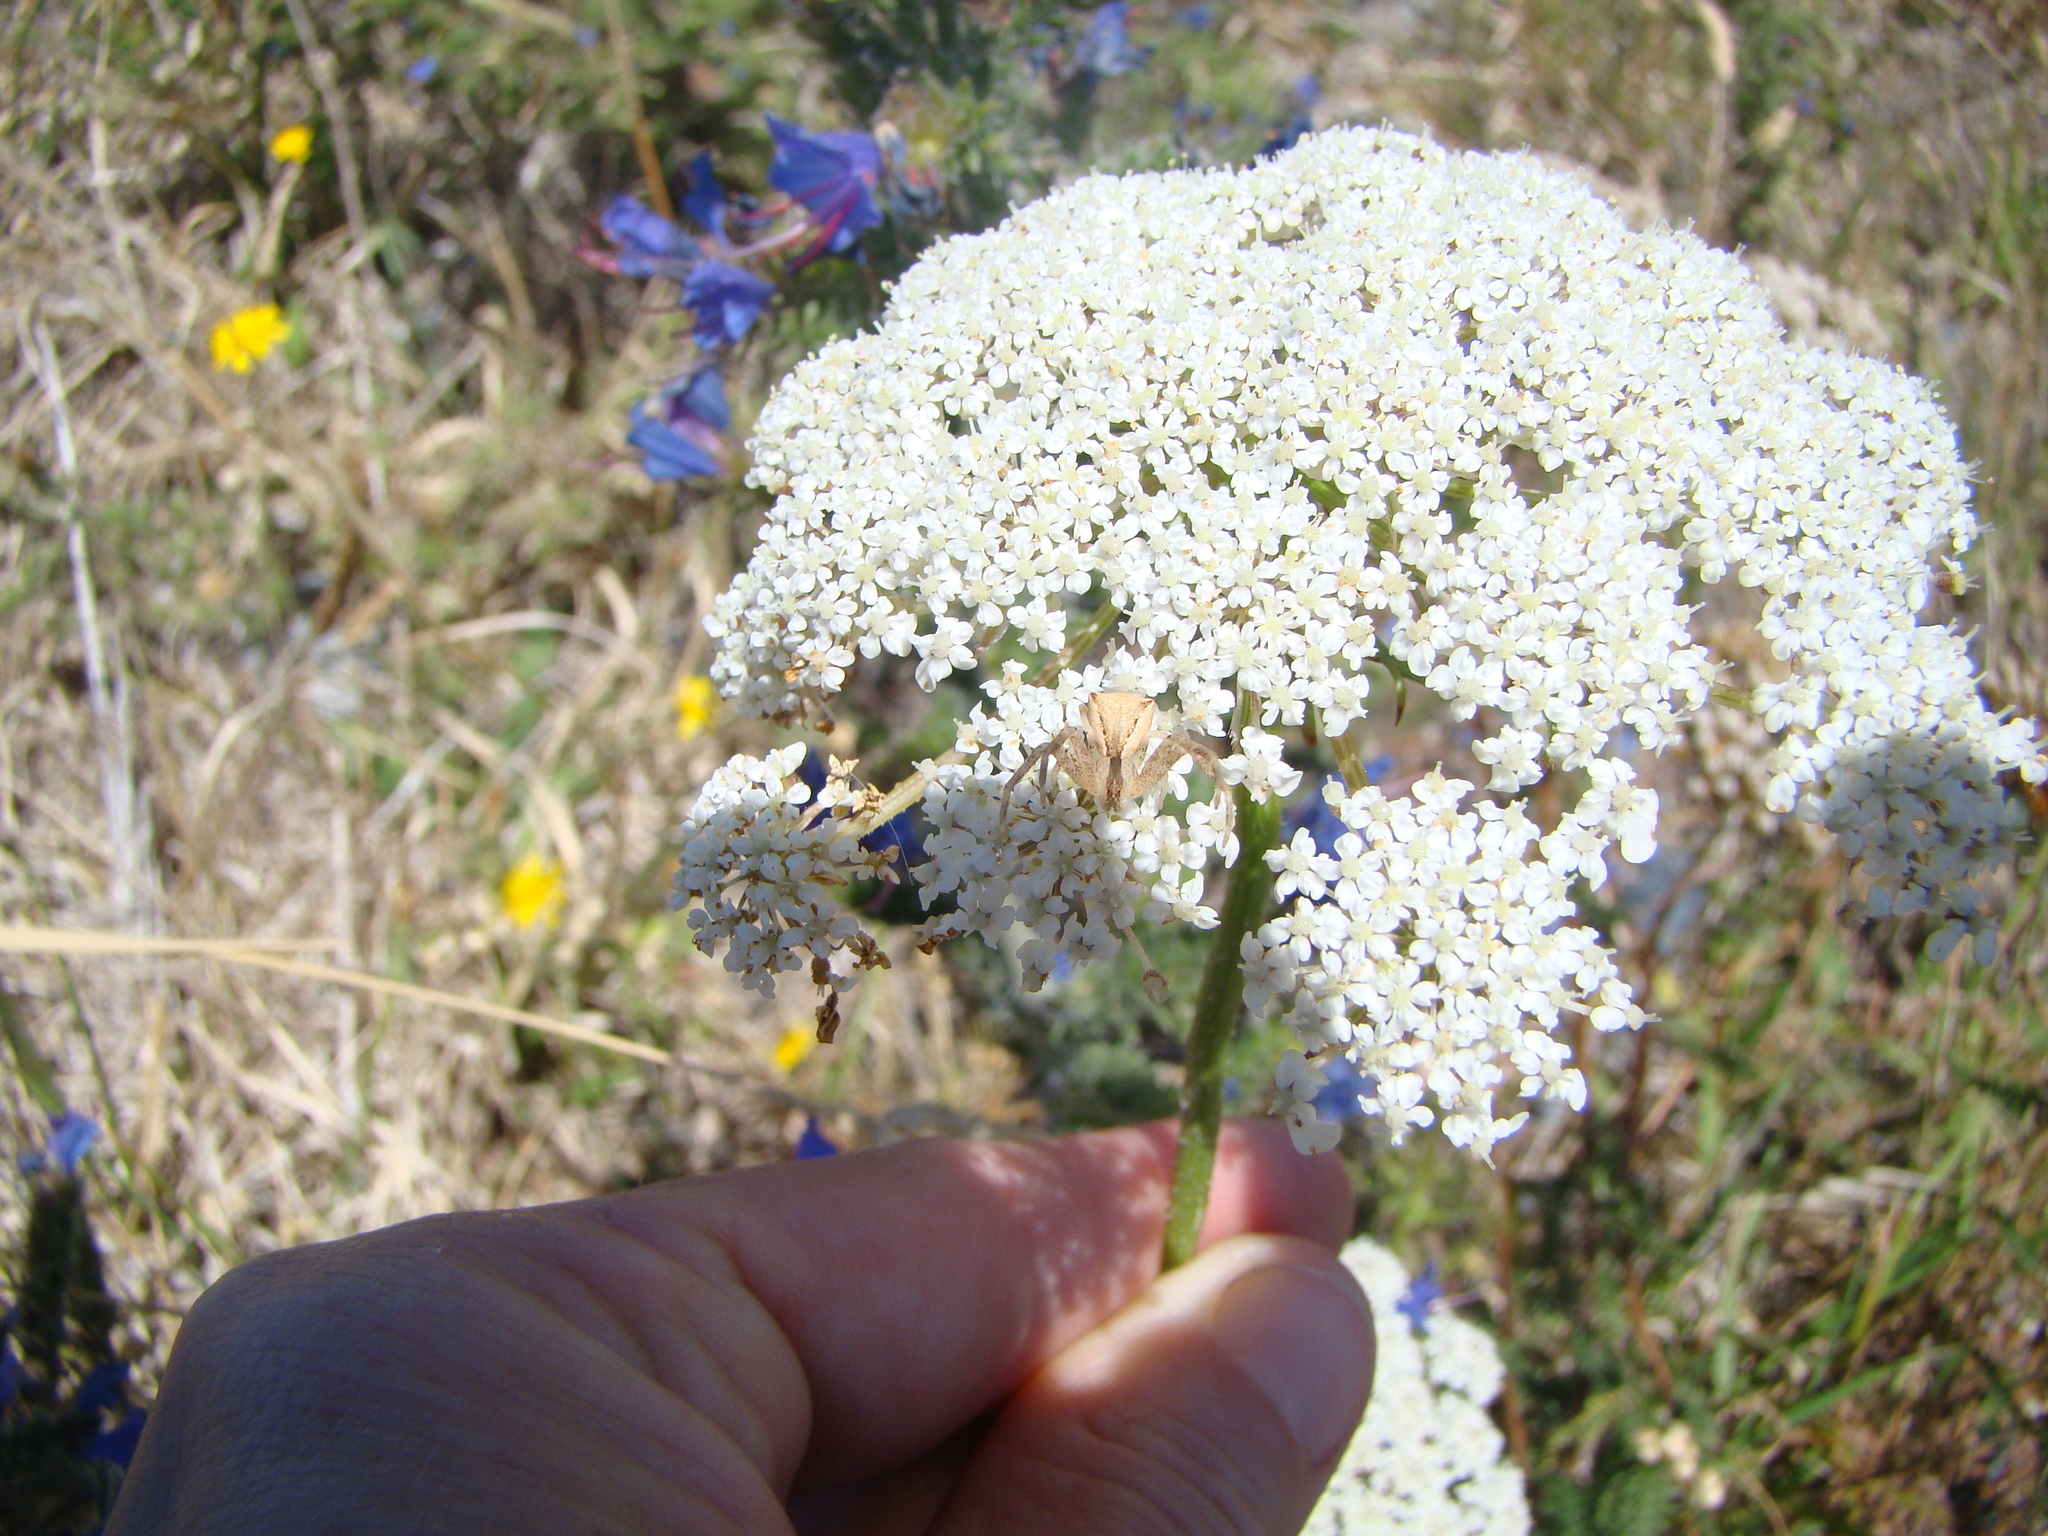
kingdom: Plantae
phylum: Tracheophyta
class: Magnoliopsida
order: Apiales
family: Apiaceae
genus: Daucus
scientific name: Daucus carota
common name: Wild carrot
